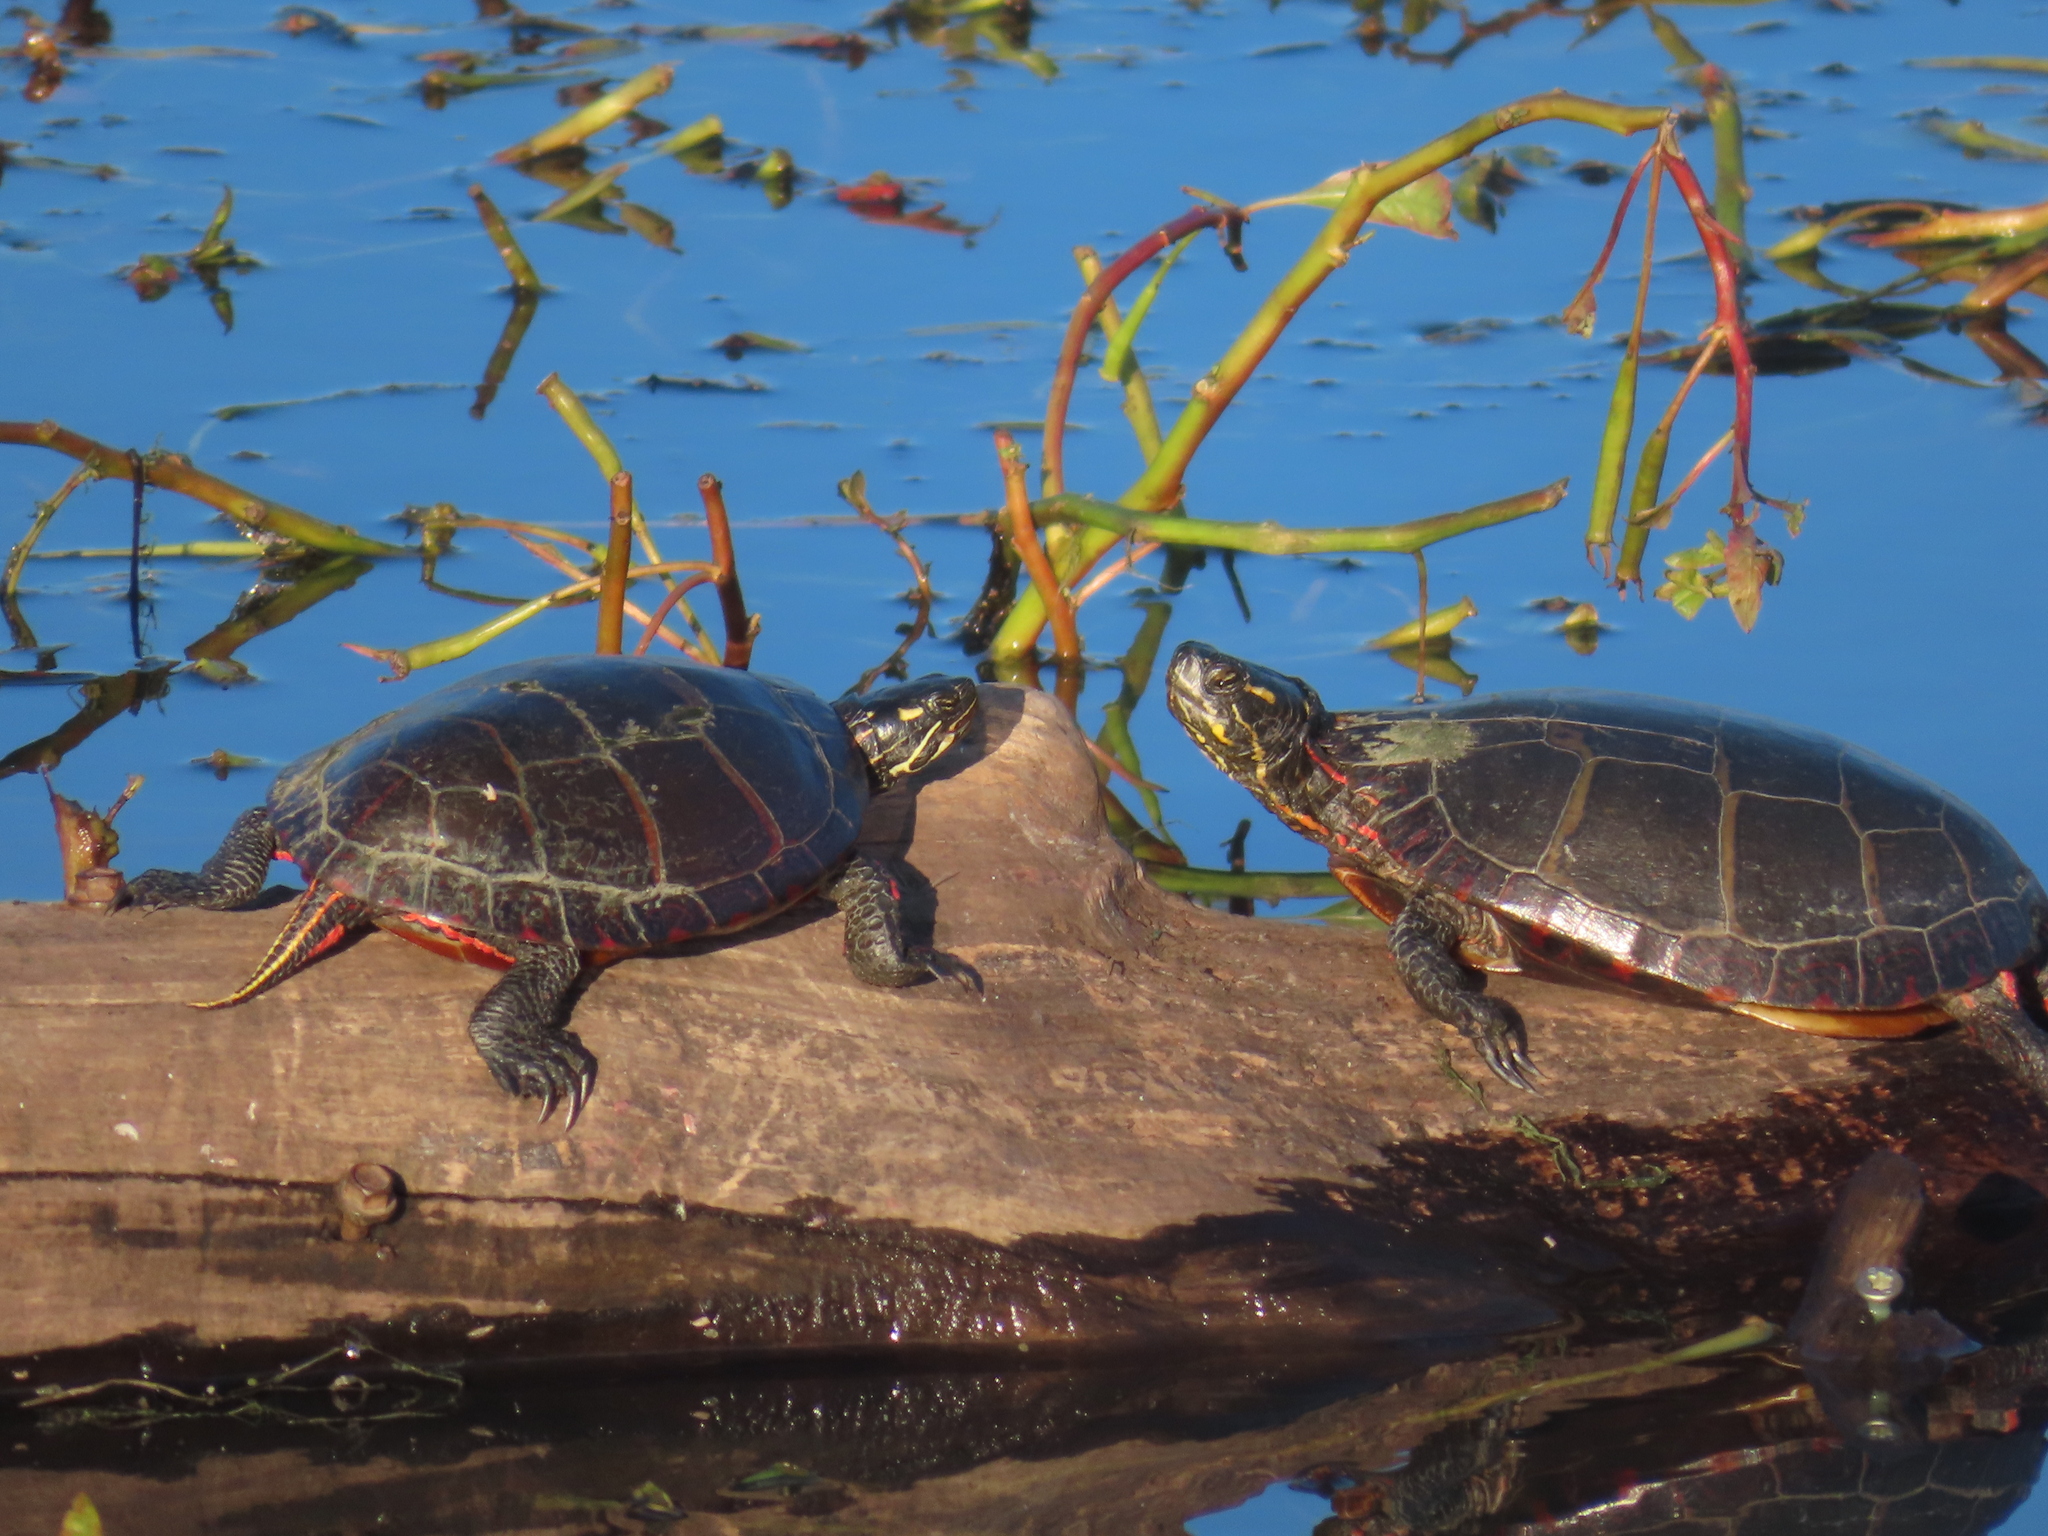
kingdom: Animalia
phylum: Chordata
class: Testudines
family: Emydidae
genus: Trachemys
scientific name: Trachemys scripta
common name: Slider
